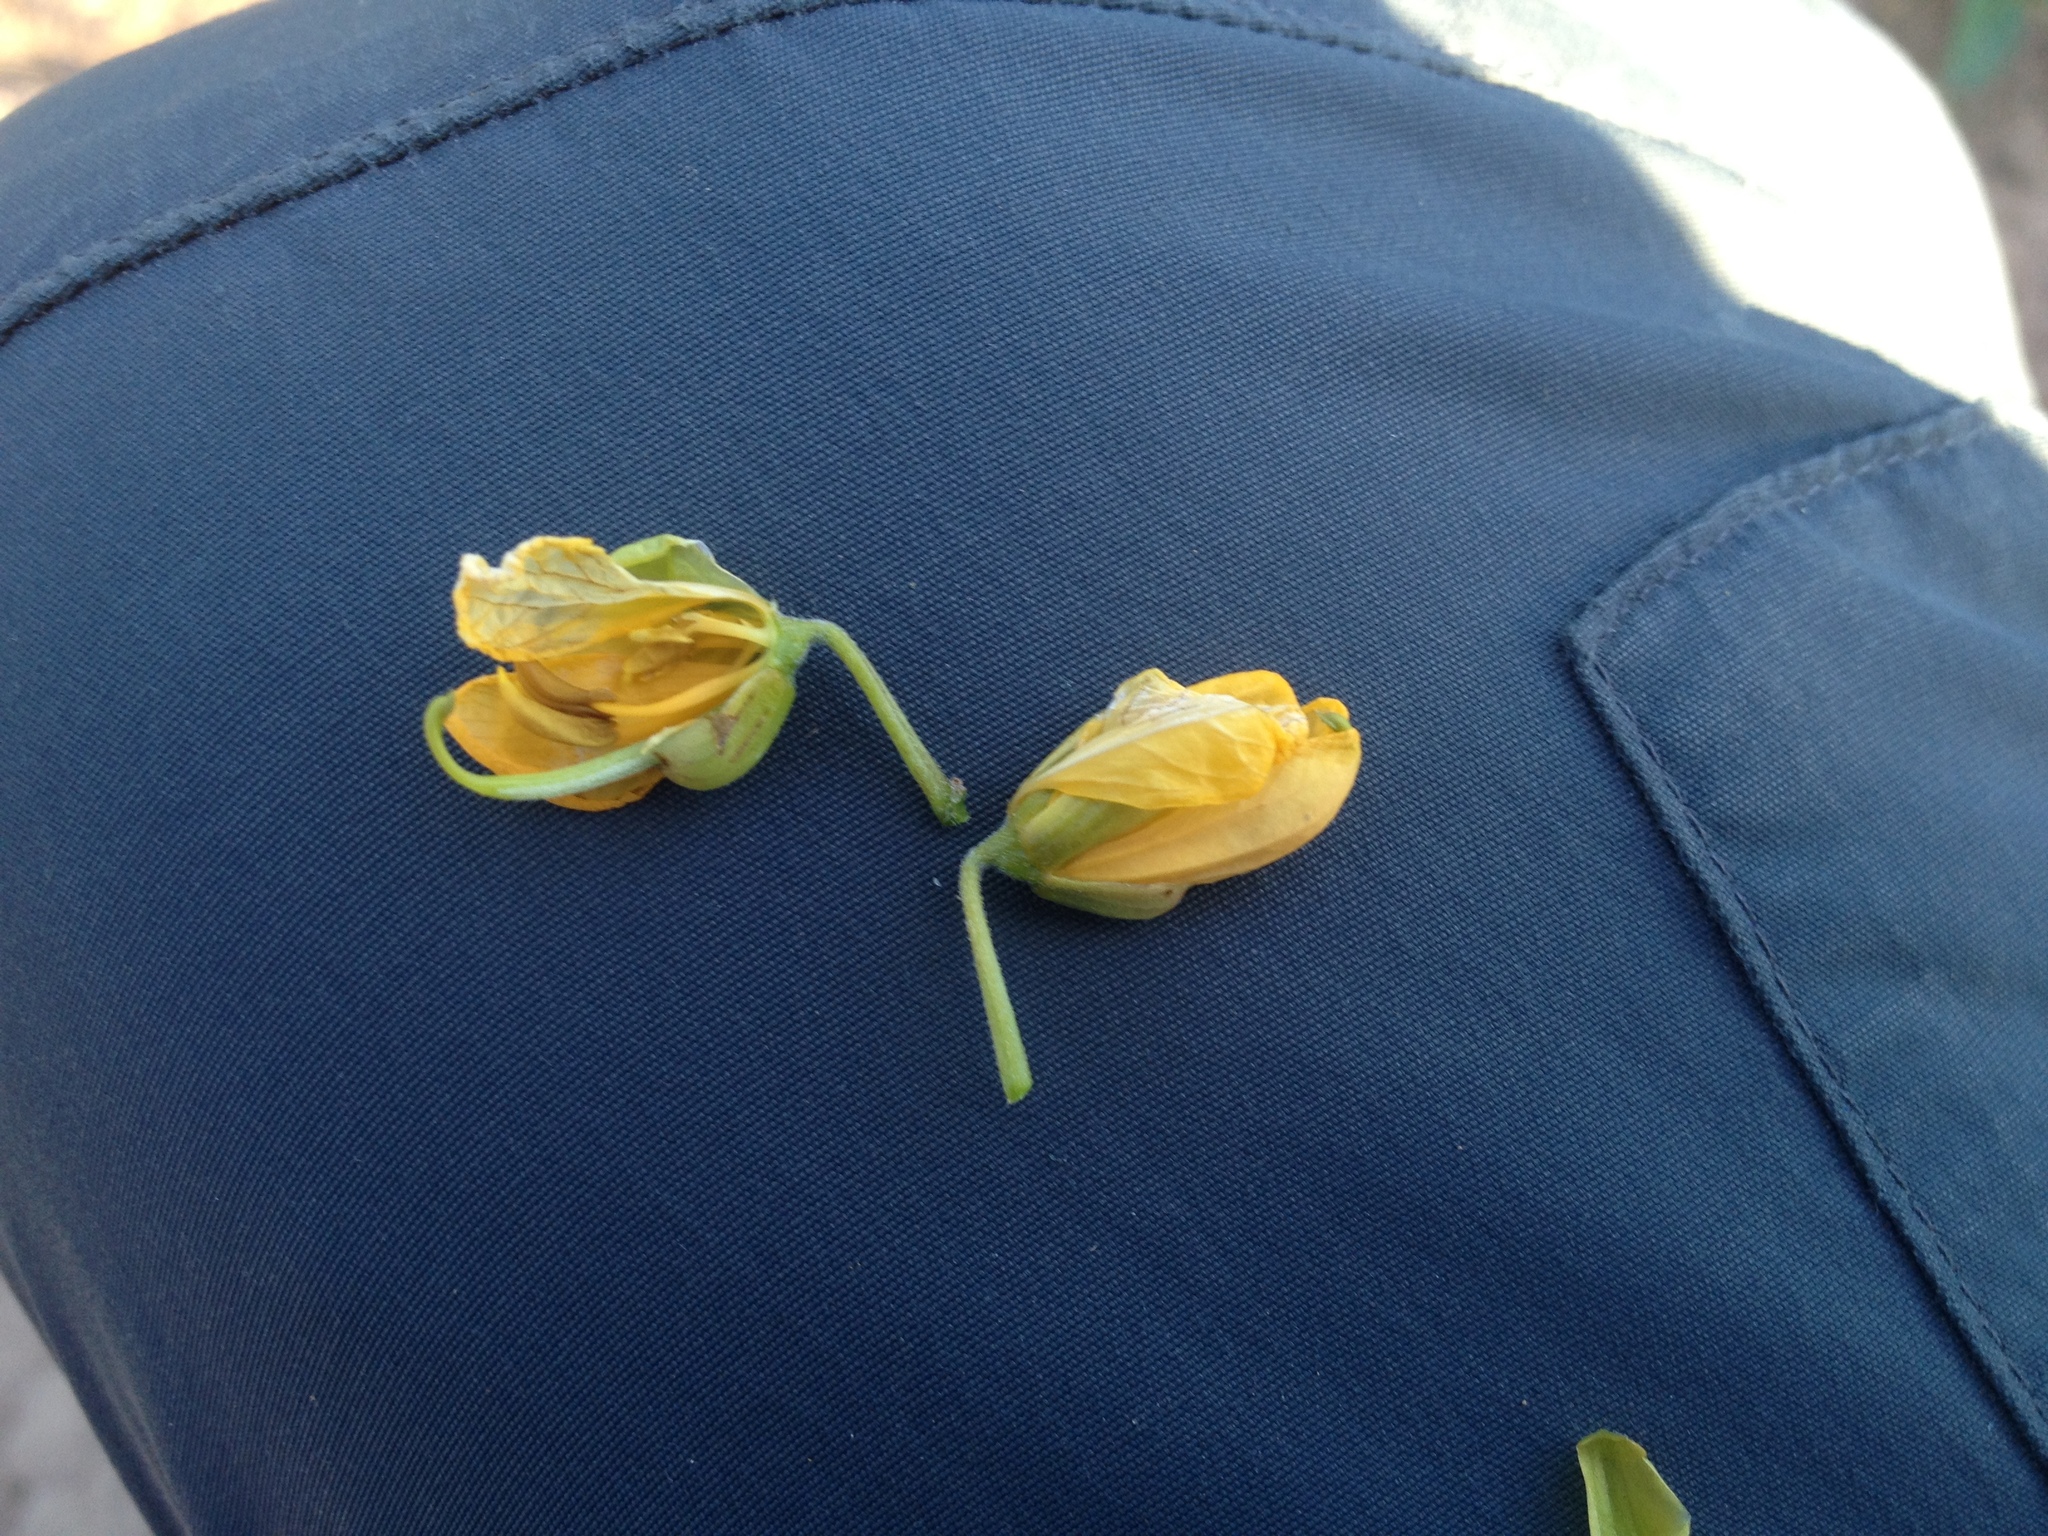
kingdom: Plantae
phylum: Tracheophyta
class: Magnoliopsida
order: Fabales
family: Fabaceae
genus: Senna
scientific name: Senna occidentalis
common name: Septicweed
